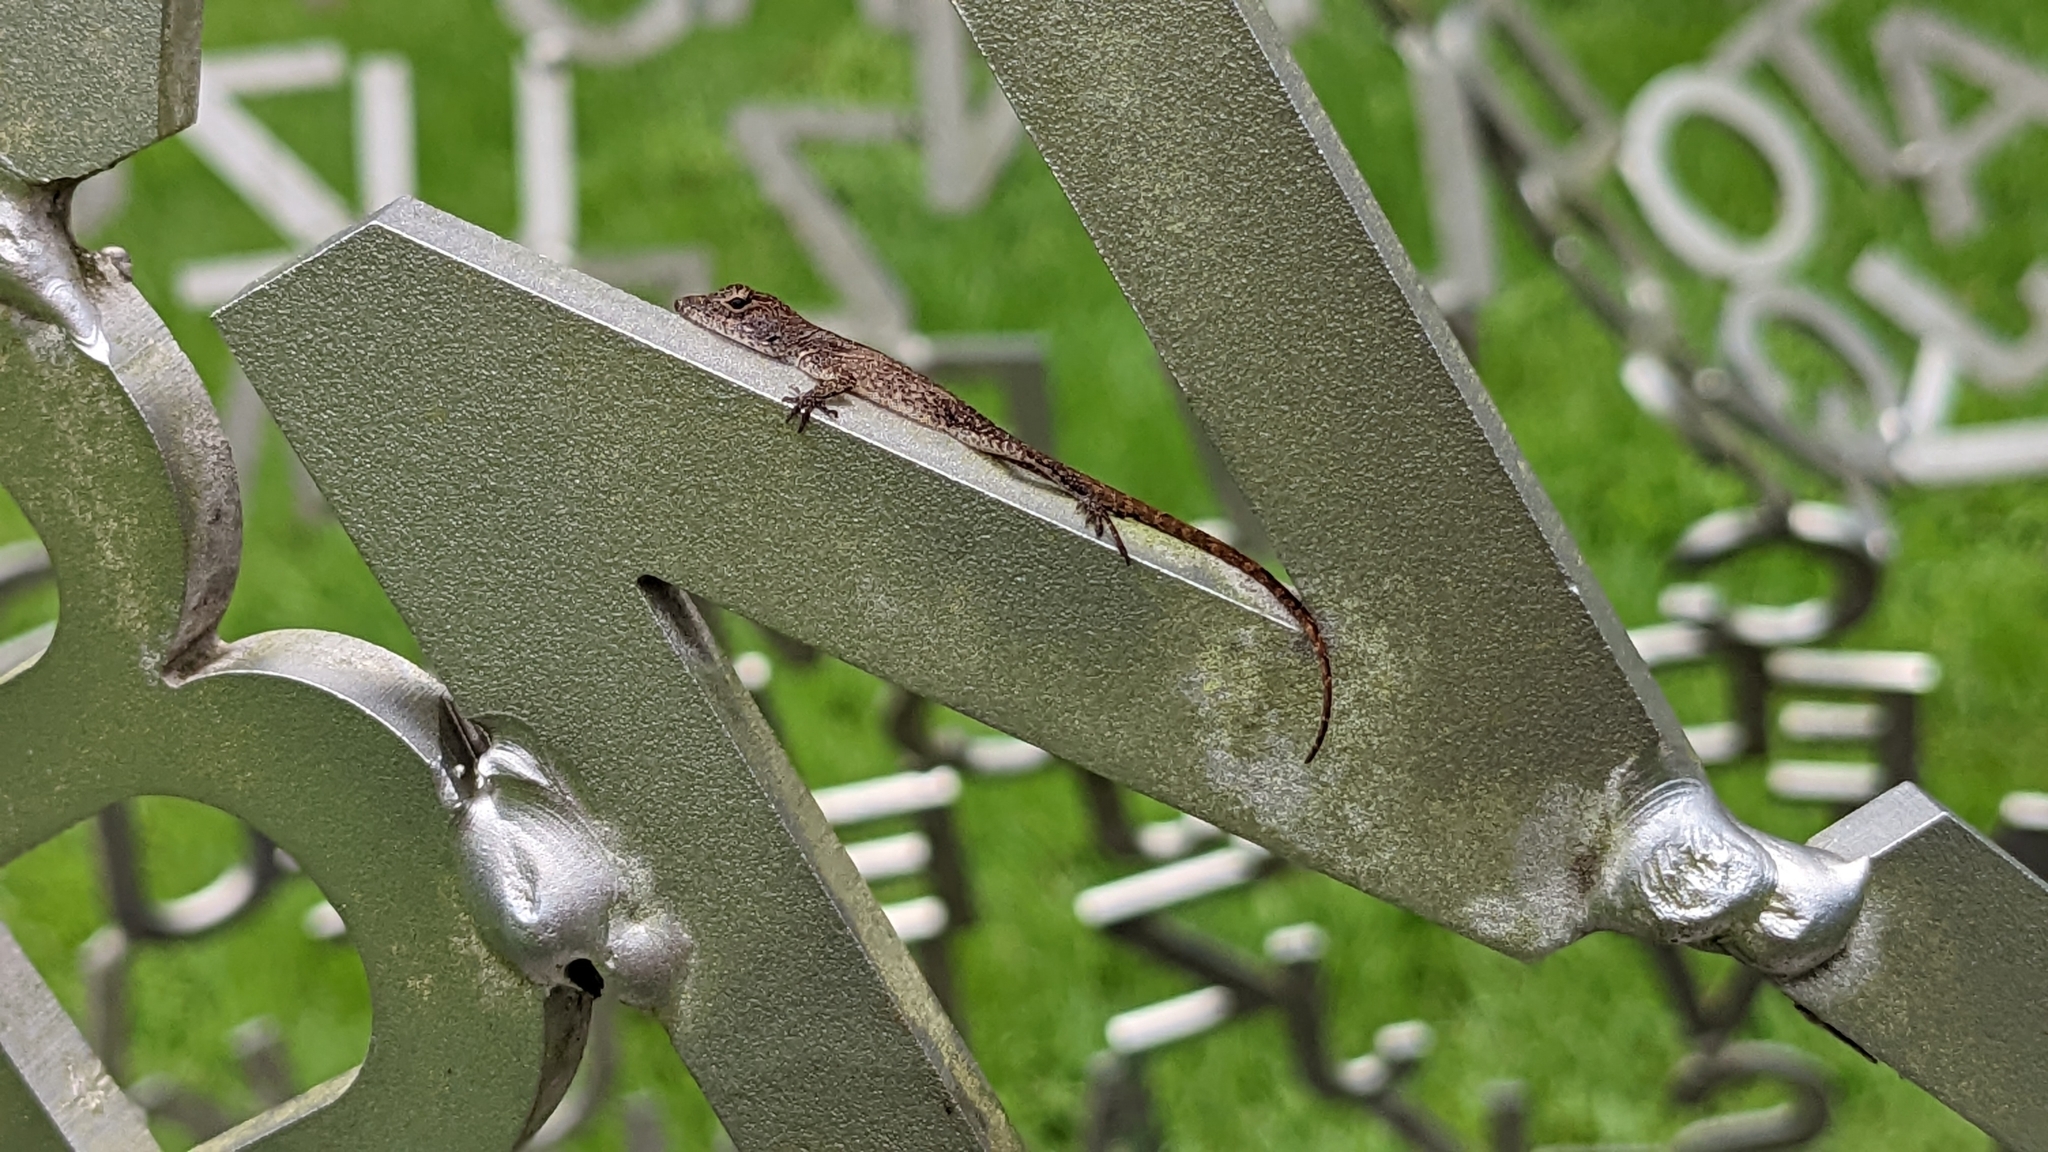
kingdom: Animalia
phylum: Chordata
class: Squamata
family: Dactyloidae
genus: Anolis
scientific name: Anolis sagrei
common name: Brown anole
